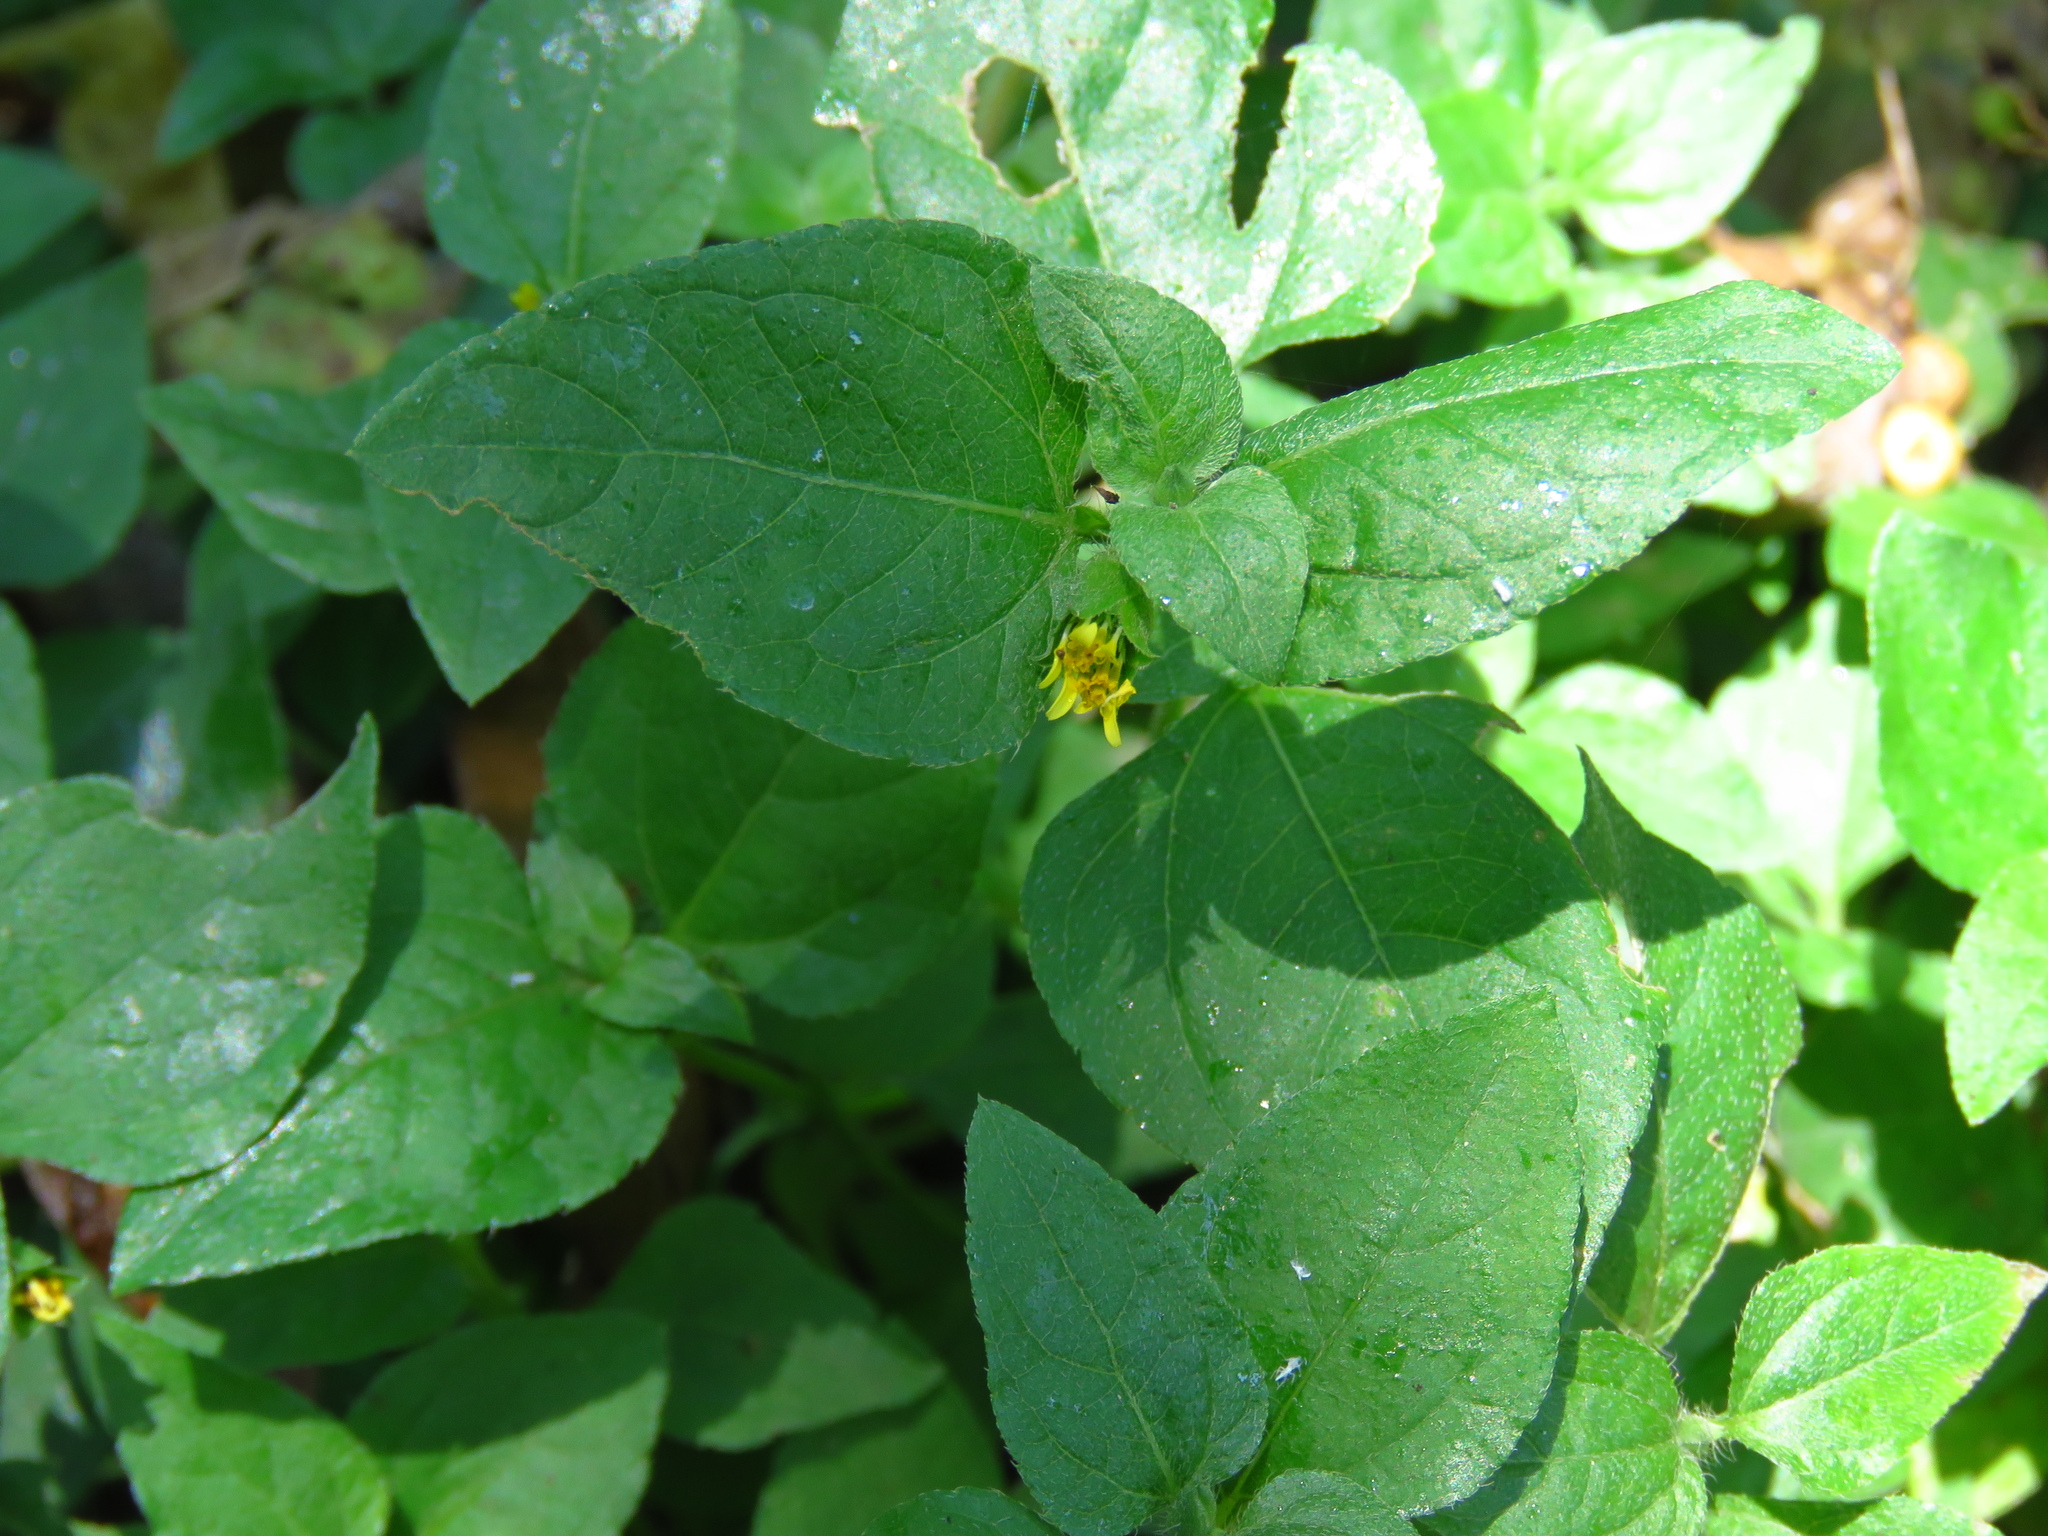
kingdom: Plantae
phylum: Tracheophyta
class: Magnoliopsida
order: Asterales
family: Asteraceae
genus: Calyptocarpus
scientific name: Calyptocarpus vialis
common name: Straggler daisy
